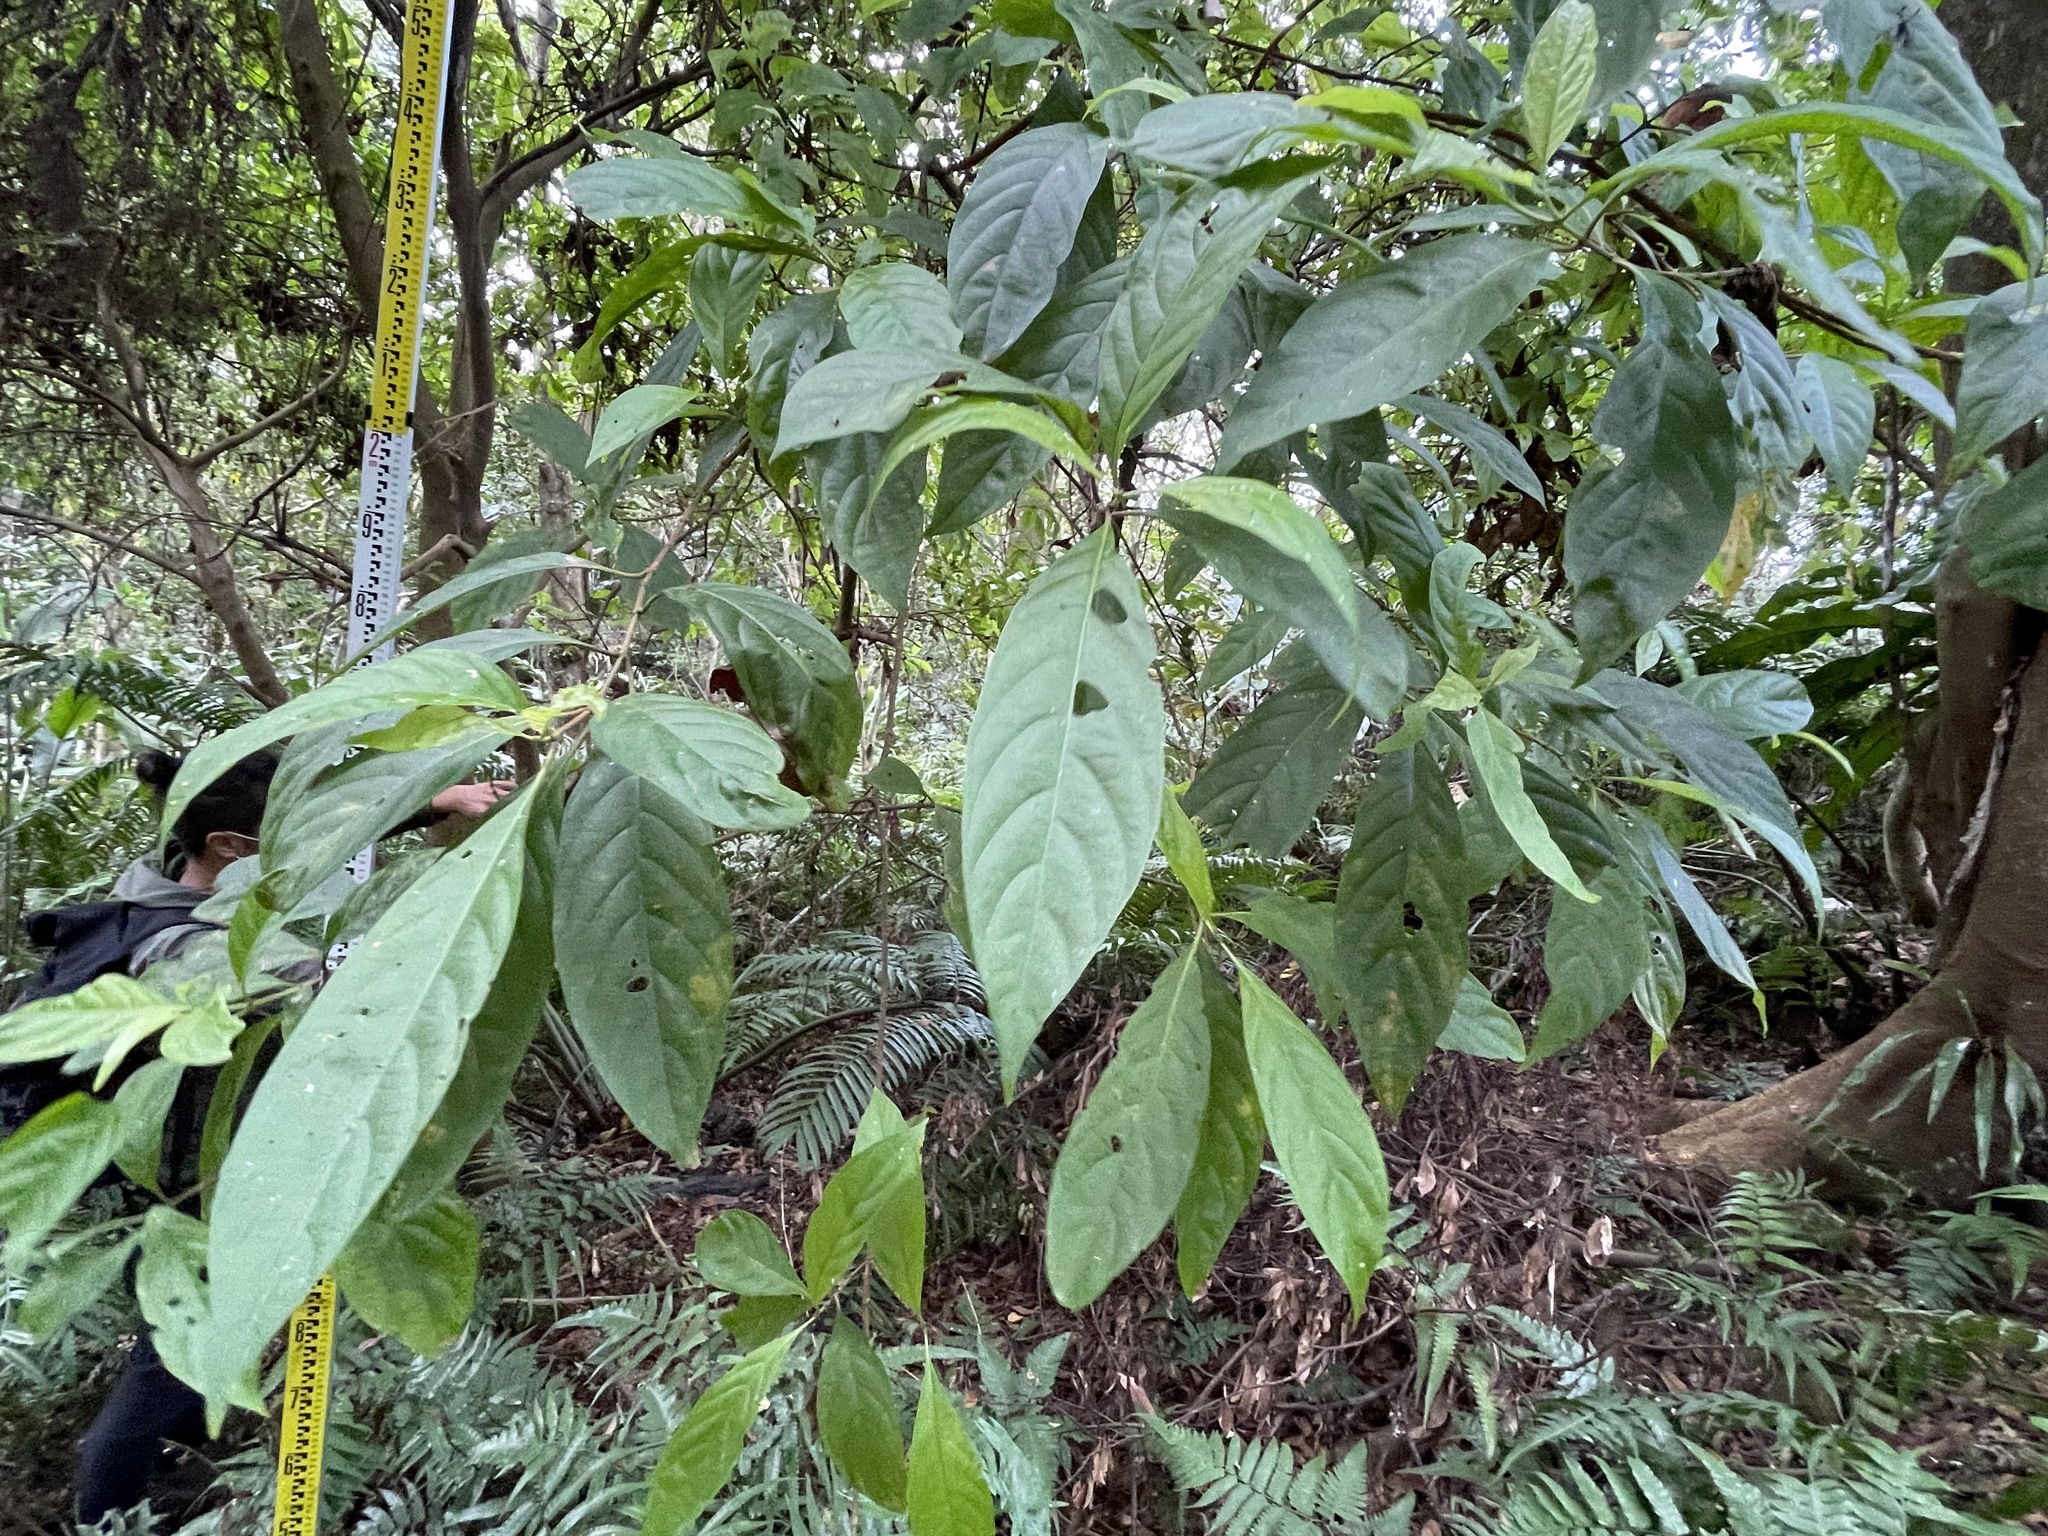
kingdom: Plantae
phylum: Tracheophyta
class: Magnoliopsida
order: Gentianales
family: Rubiaceae
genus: Wendlandia
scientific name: Wendlandia formosana
